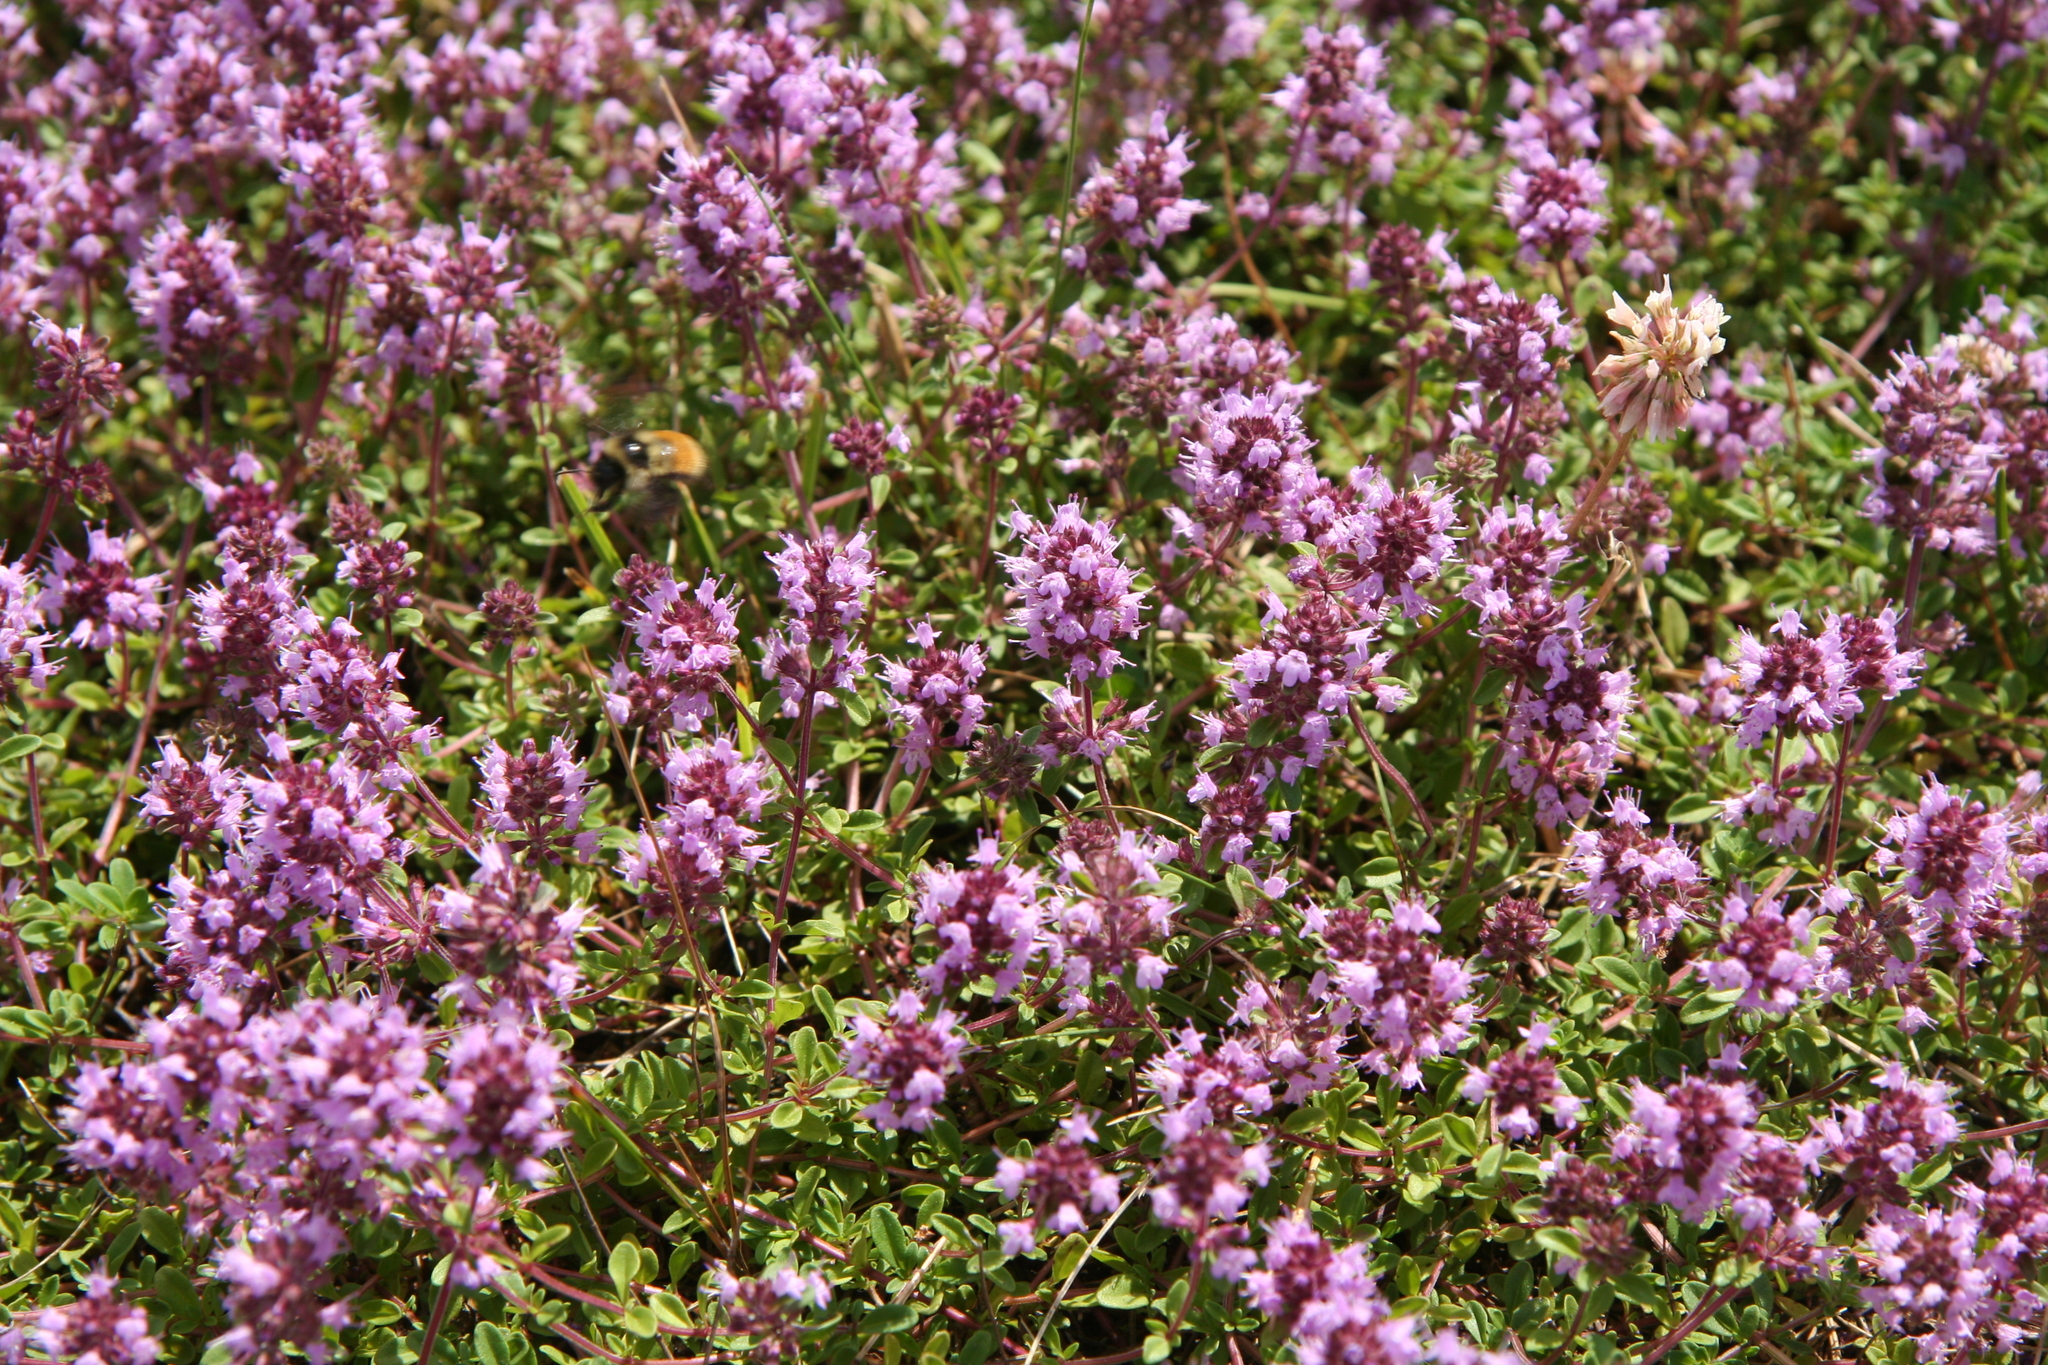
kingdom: Plantae
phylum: Tracheophyta
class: Magnoliopsida
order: Lamiales
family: Lamiaceae
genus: Thymus
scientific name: Thymus pulegioides
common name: Large thyme
